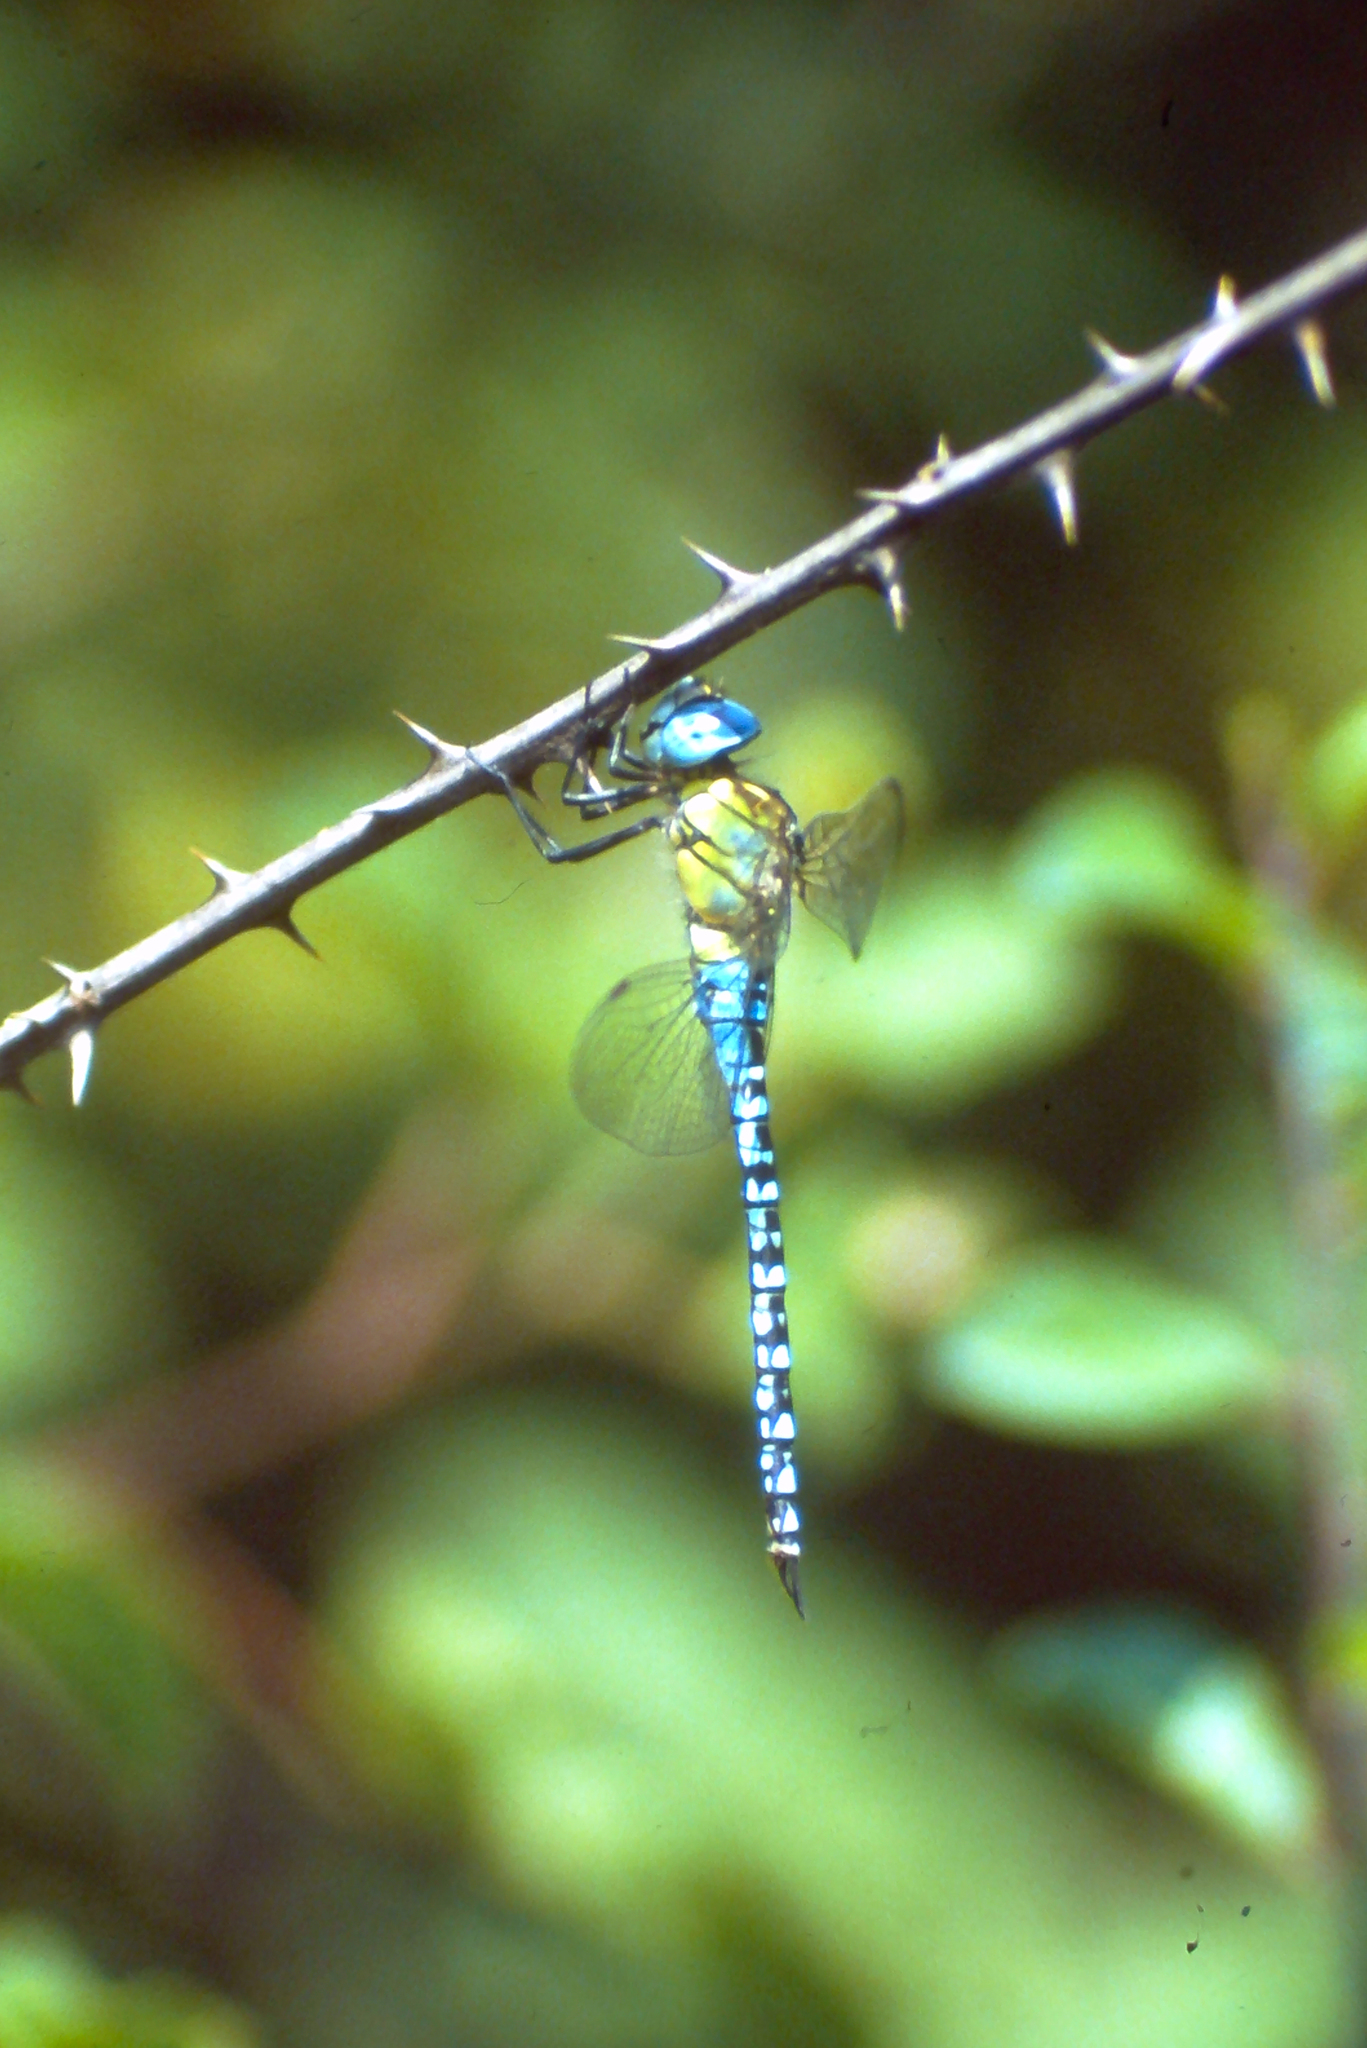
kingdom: Animalia
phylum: Arthropoda
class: Insecta
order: Odonata
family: Aeshnidae
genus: Aeshna
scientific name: Aeshna affinis
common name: Southern migrant hawker
